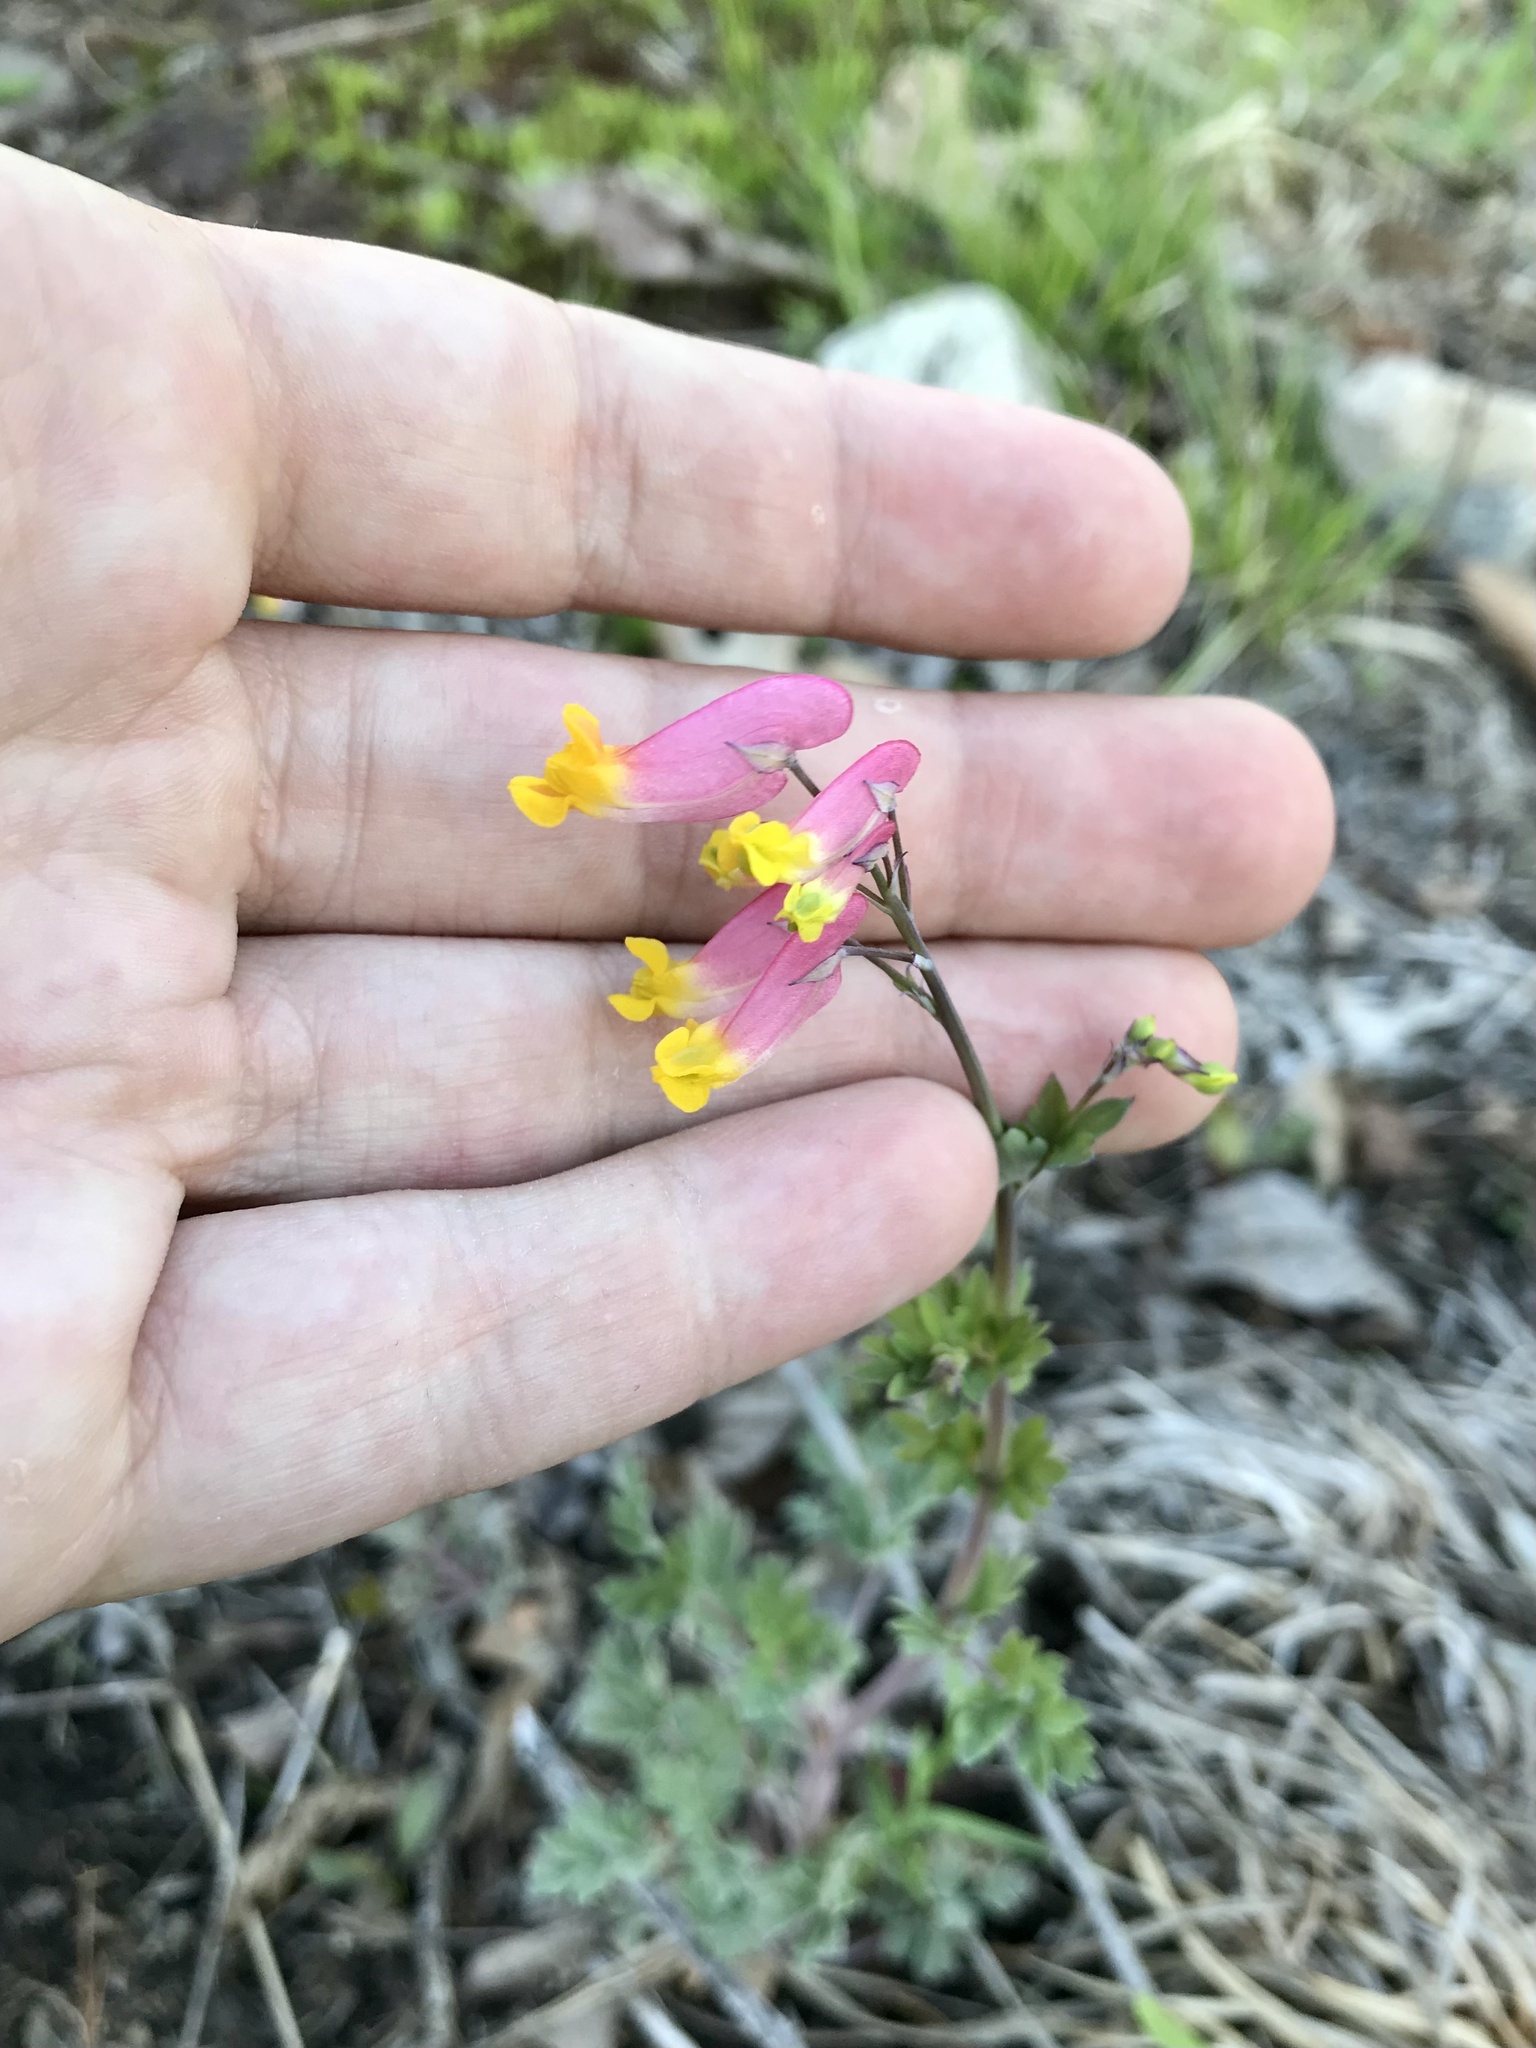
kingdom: Plantae
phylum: Tracheophyta
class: Magnoliopsida
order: Ranunculales
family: Papaveraceae
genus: Capnoides
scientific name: Capnoides sempervirens
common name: Rock harlequin
